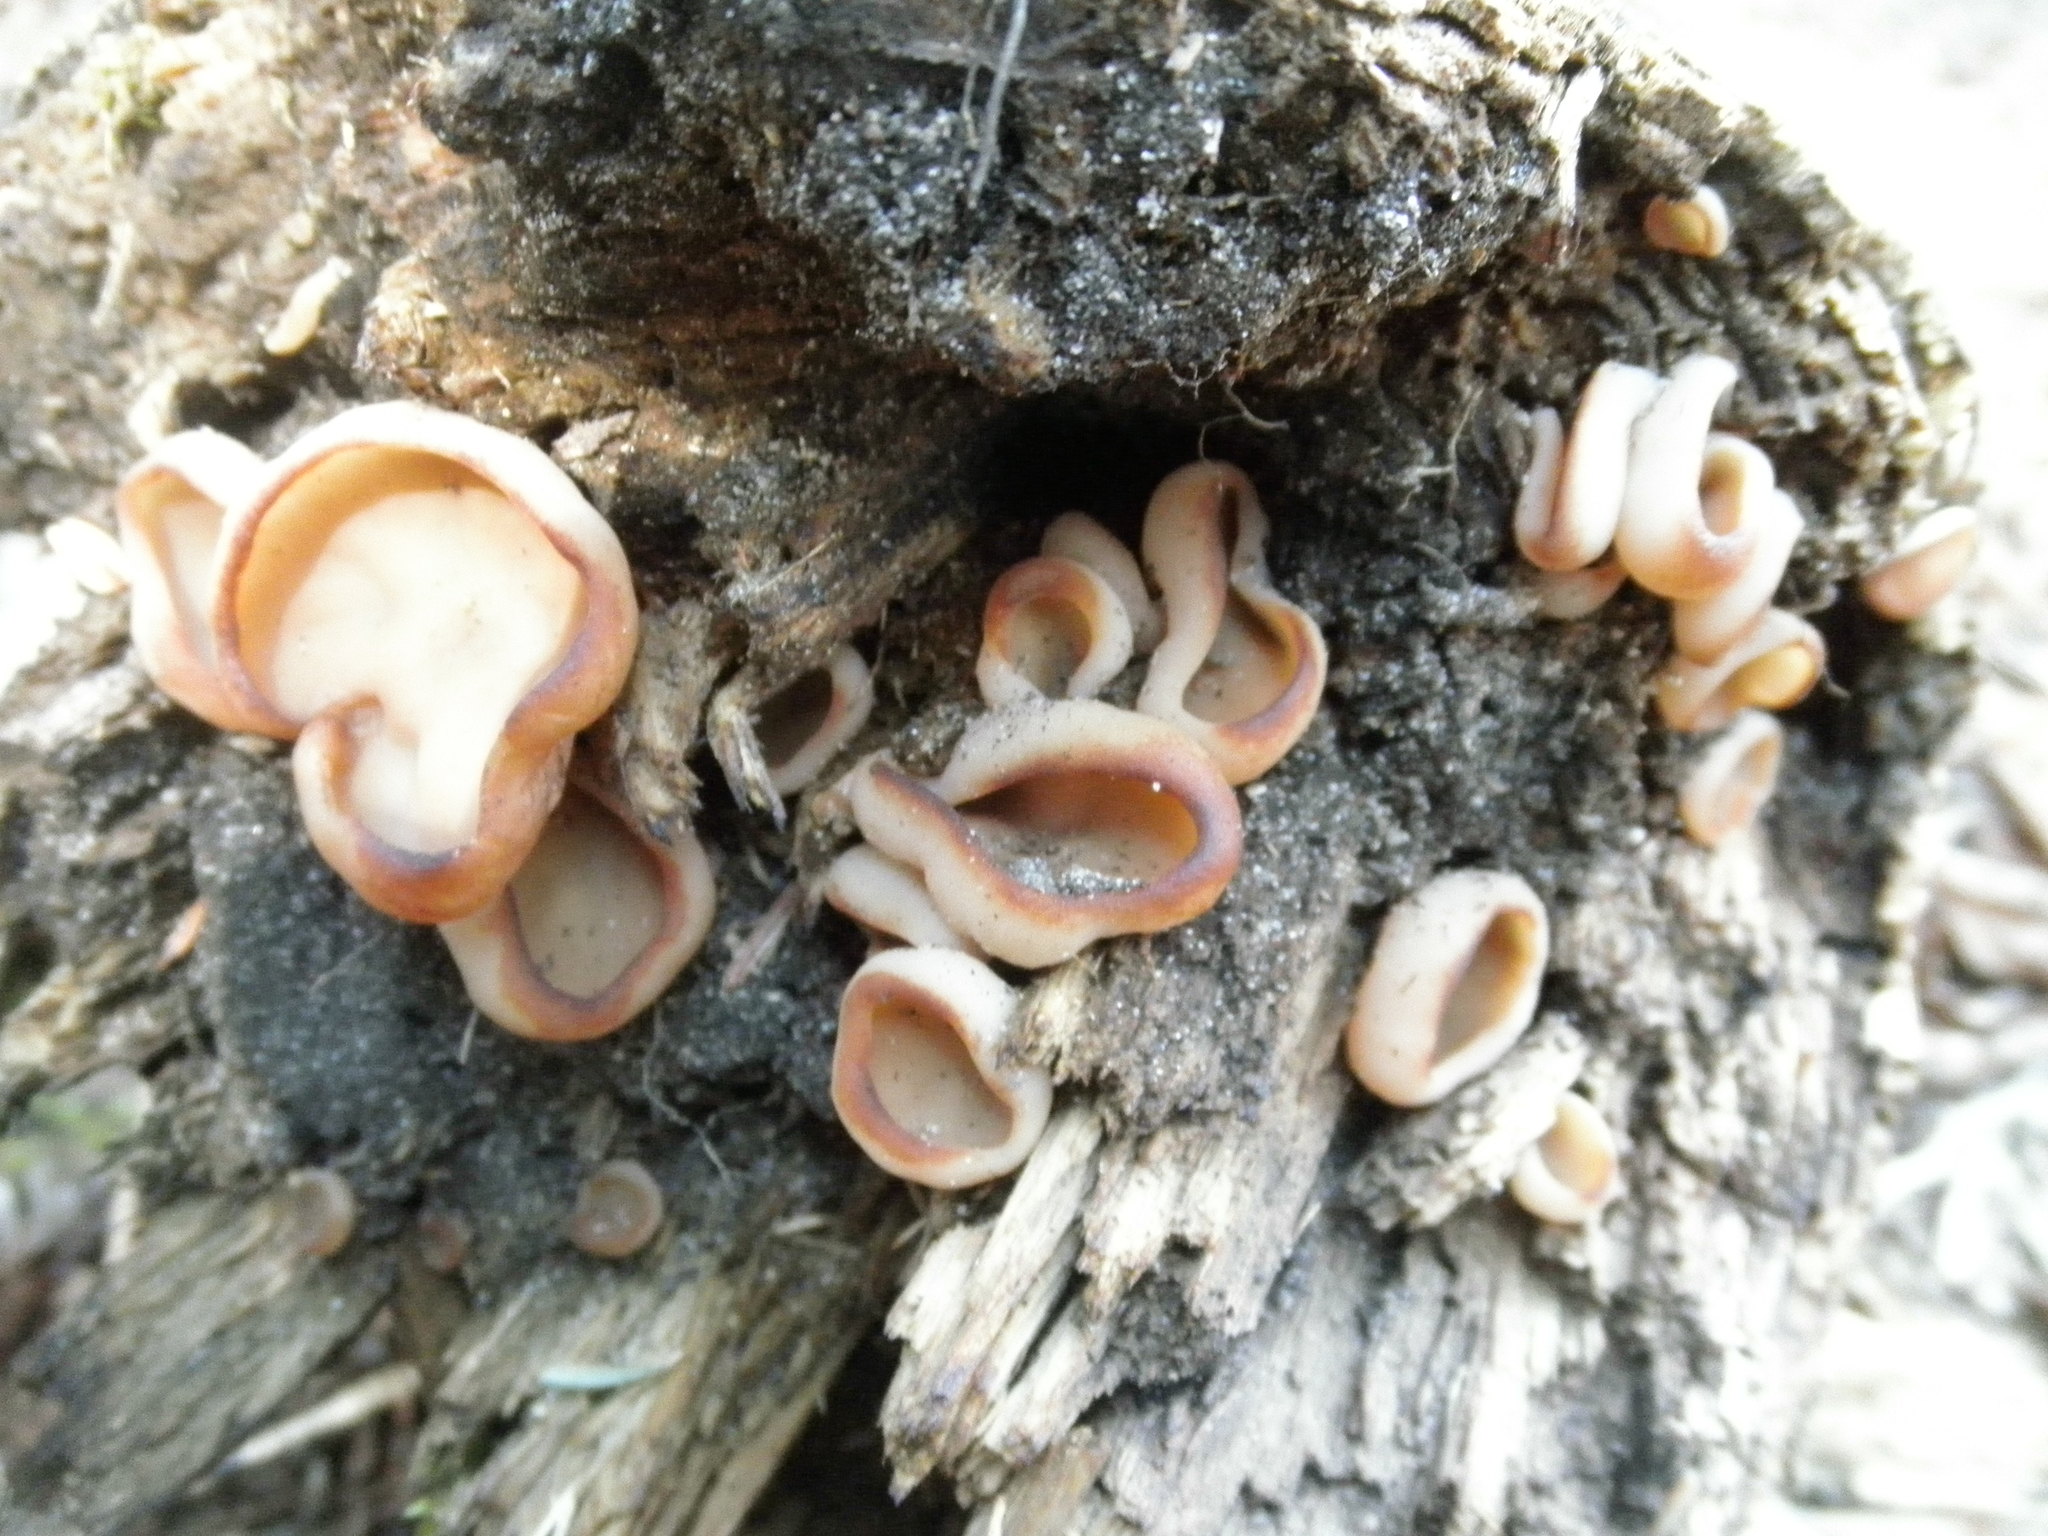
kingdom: Fungi
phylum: Ascomycota
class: Pezizomycetes
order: Pezizales
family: Pezizaceae
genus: Peziza
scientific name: Peziza varia
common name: Layered cup
